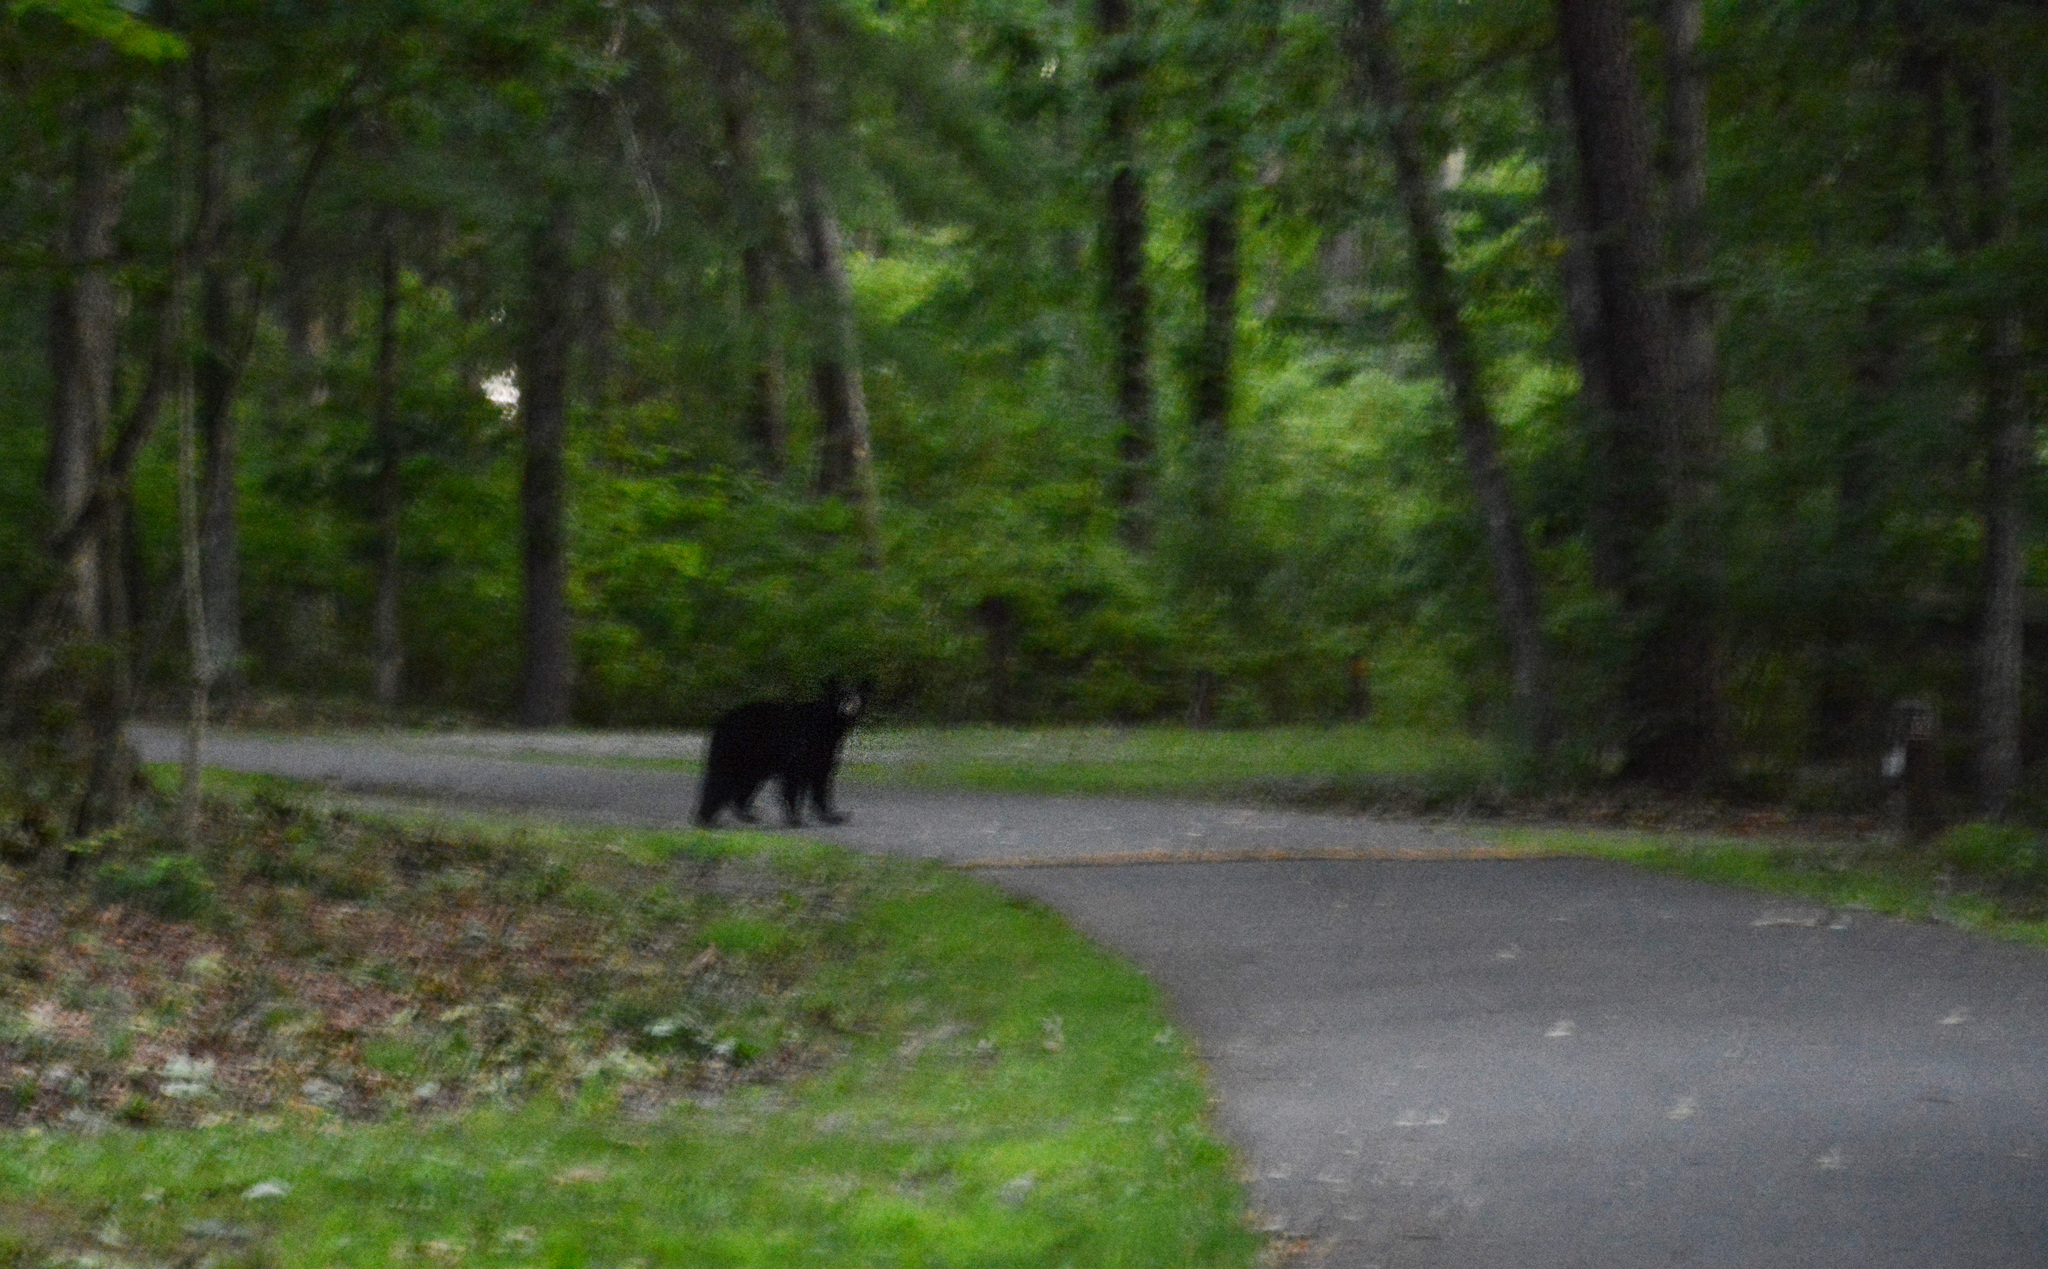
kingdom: Animalia
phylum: Chordata
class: Mammalia
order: Carnivora
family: Ursidae
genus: Ursus
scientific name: Ursus americanus
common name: American black bear
